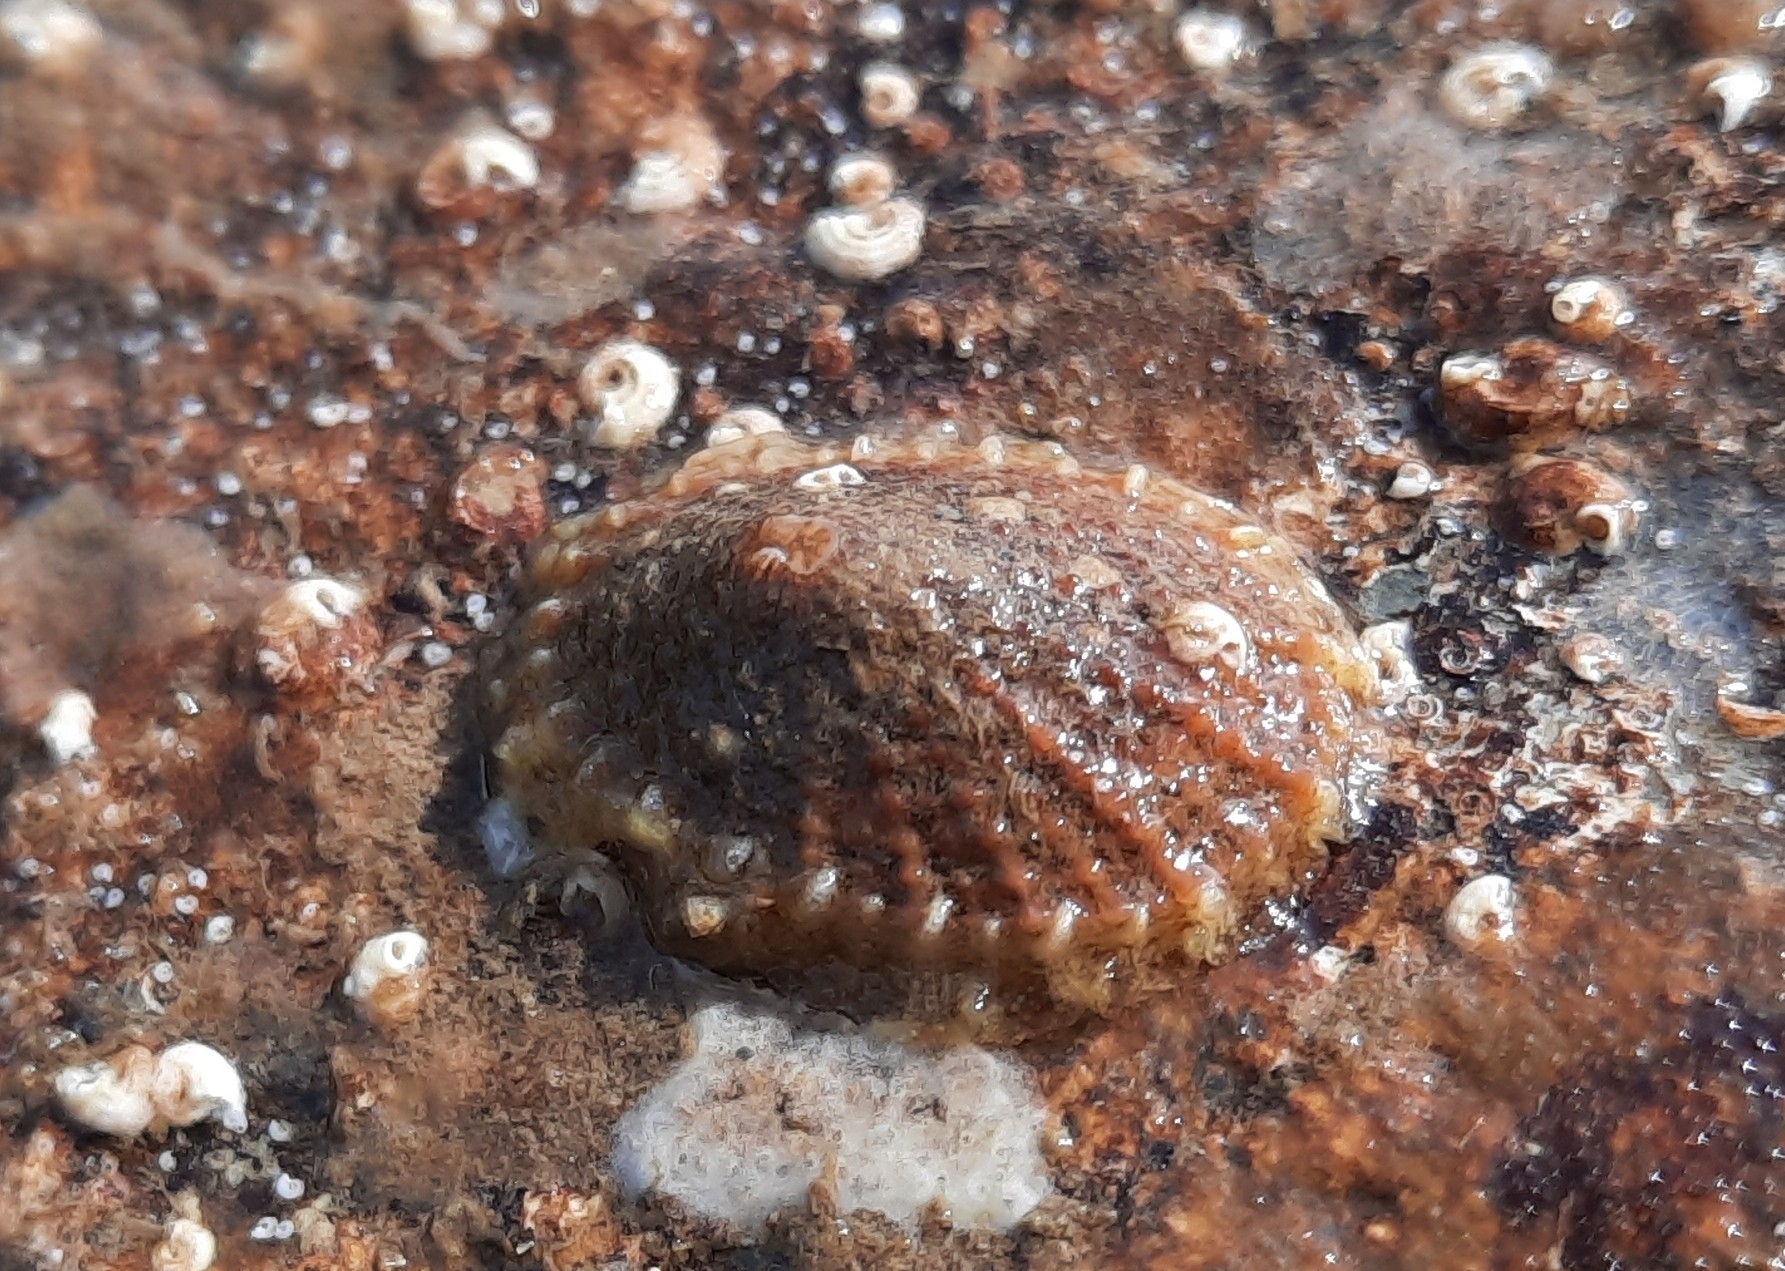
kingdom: Animalia
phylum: Mollusca
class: Gastropoda
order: Lepetellida
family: Fissurellidae
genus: Diodora
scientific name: Diodora graeca
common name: Common keyhole limpet
